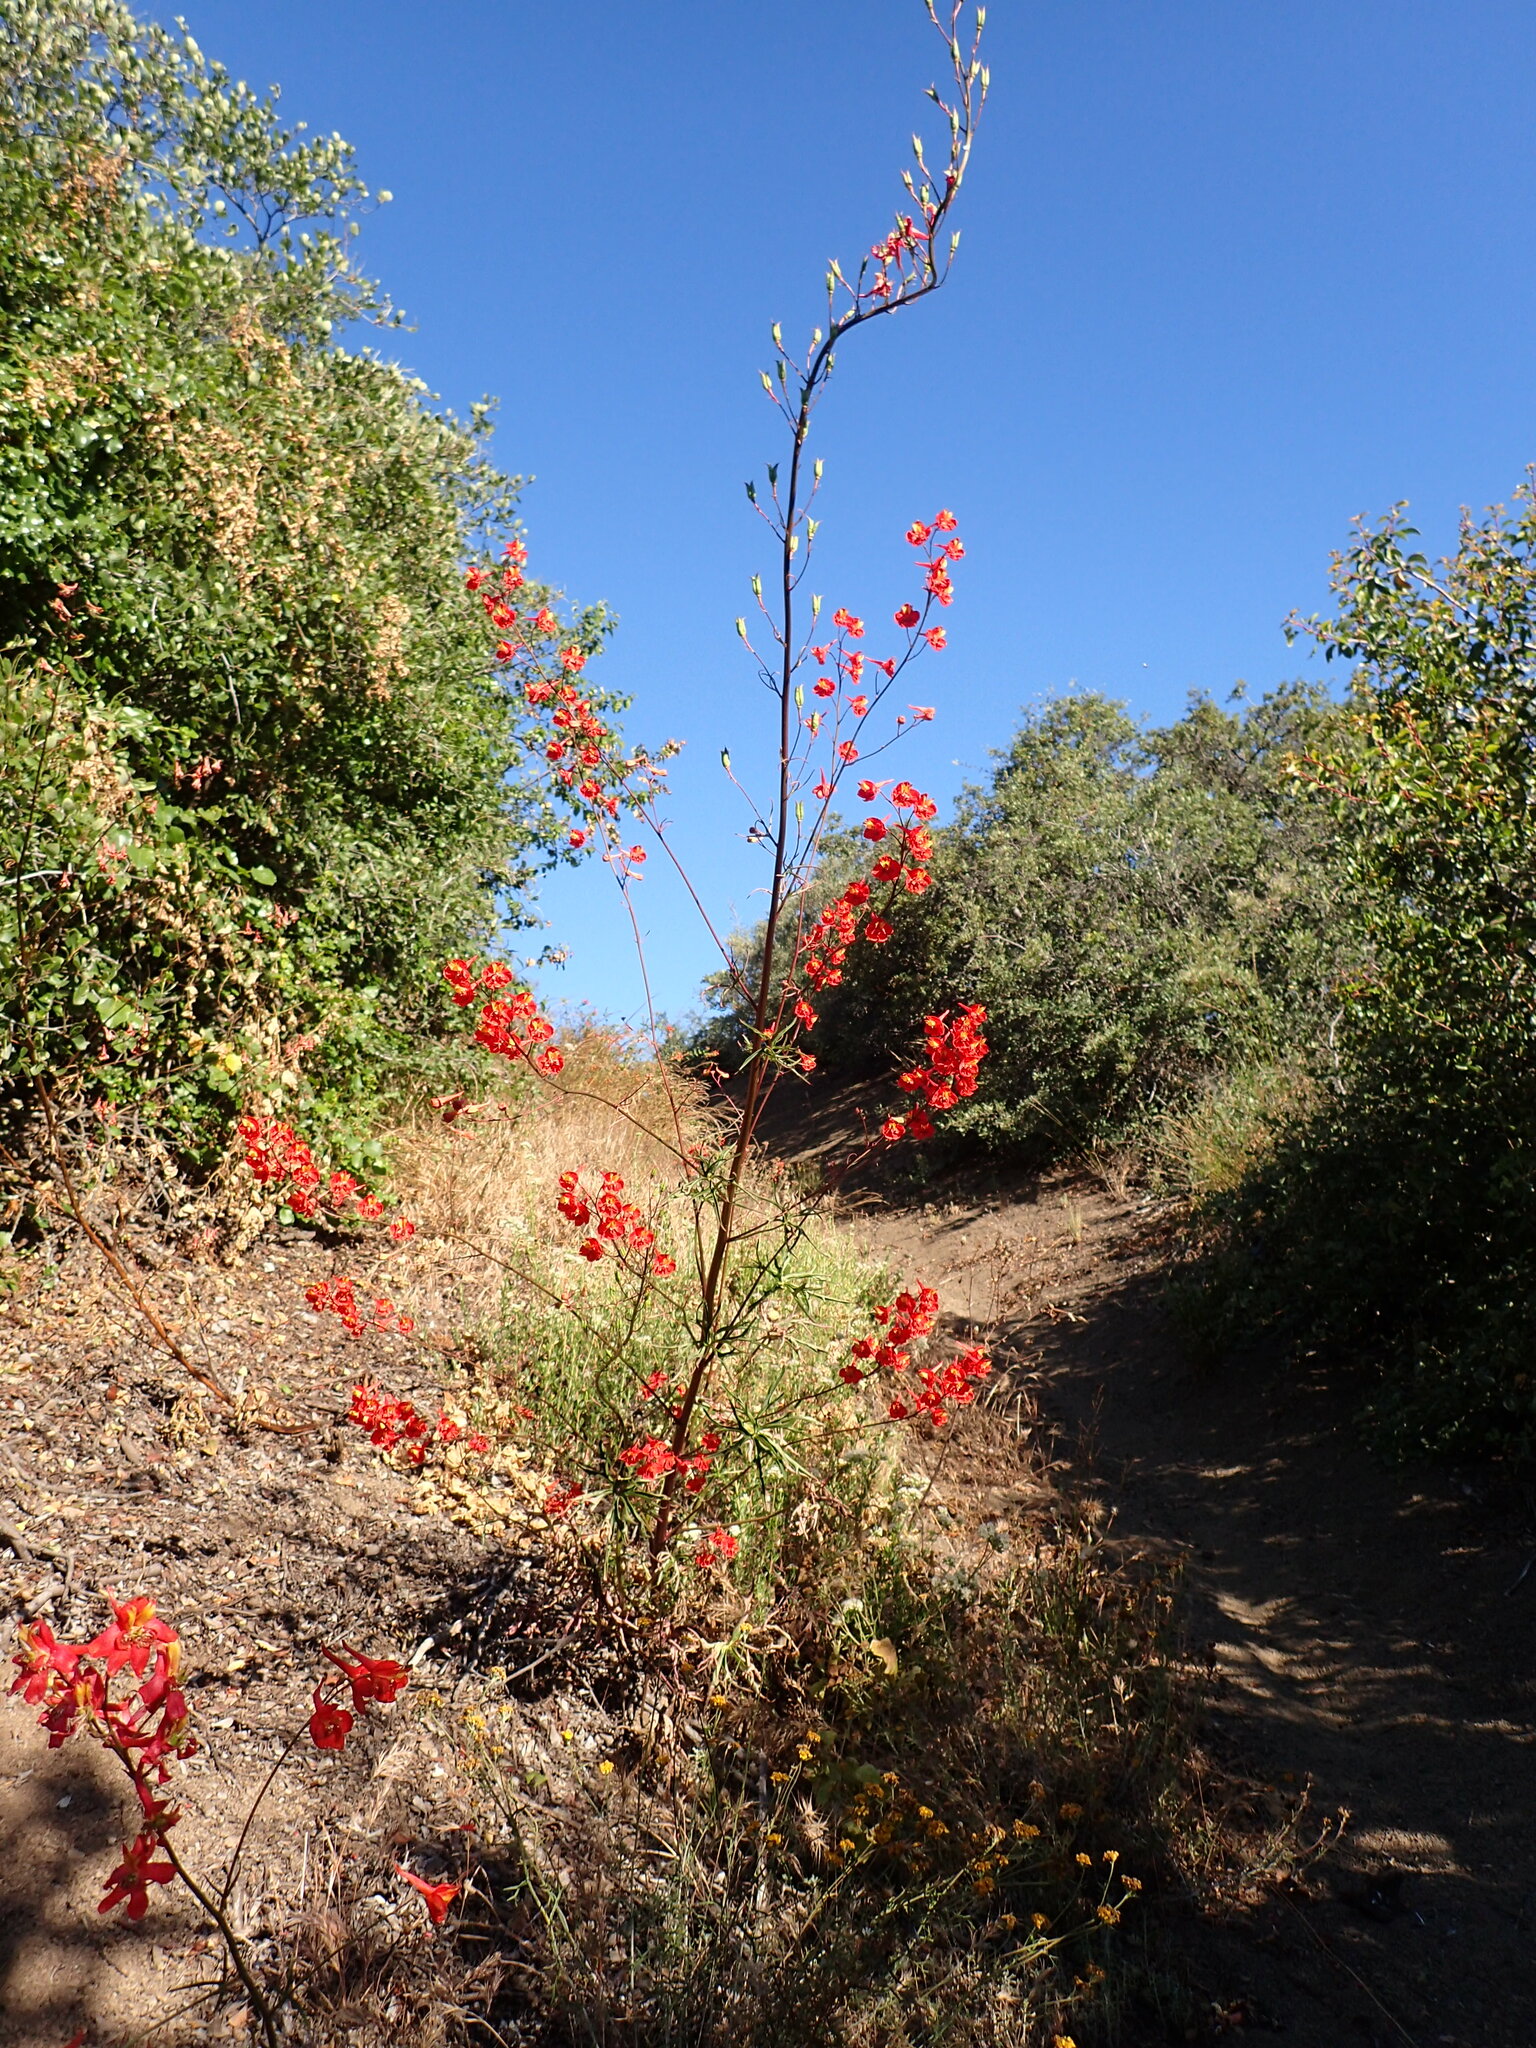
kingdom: Plantae
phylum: Tracheophyta
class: Magnoliopsida
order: Ranunculales
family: Ranunculaceae
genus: Delphinium
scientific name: Delphinium cardinale
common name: Scarlet larkspur
